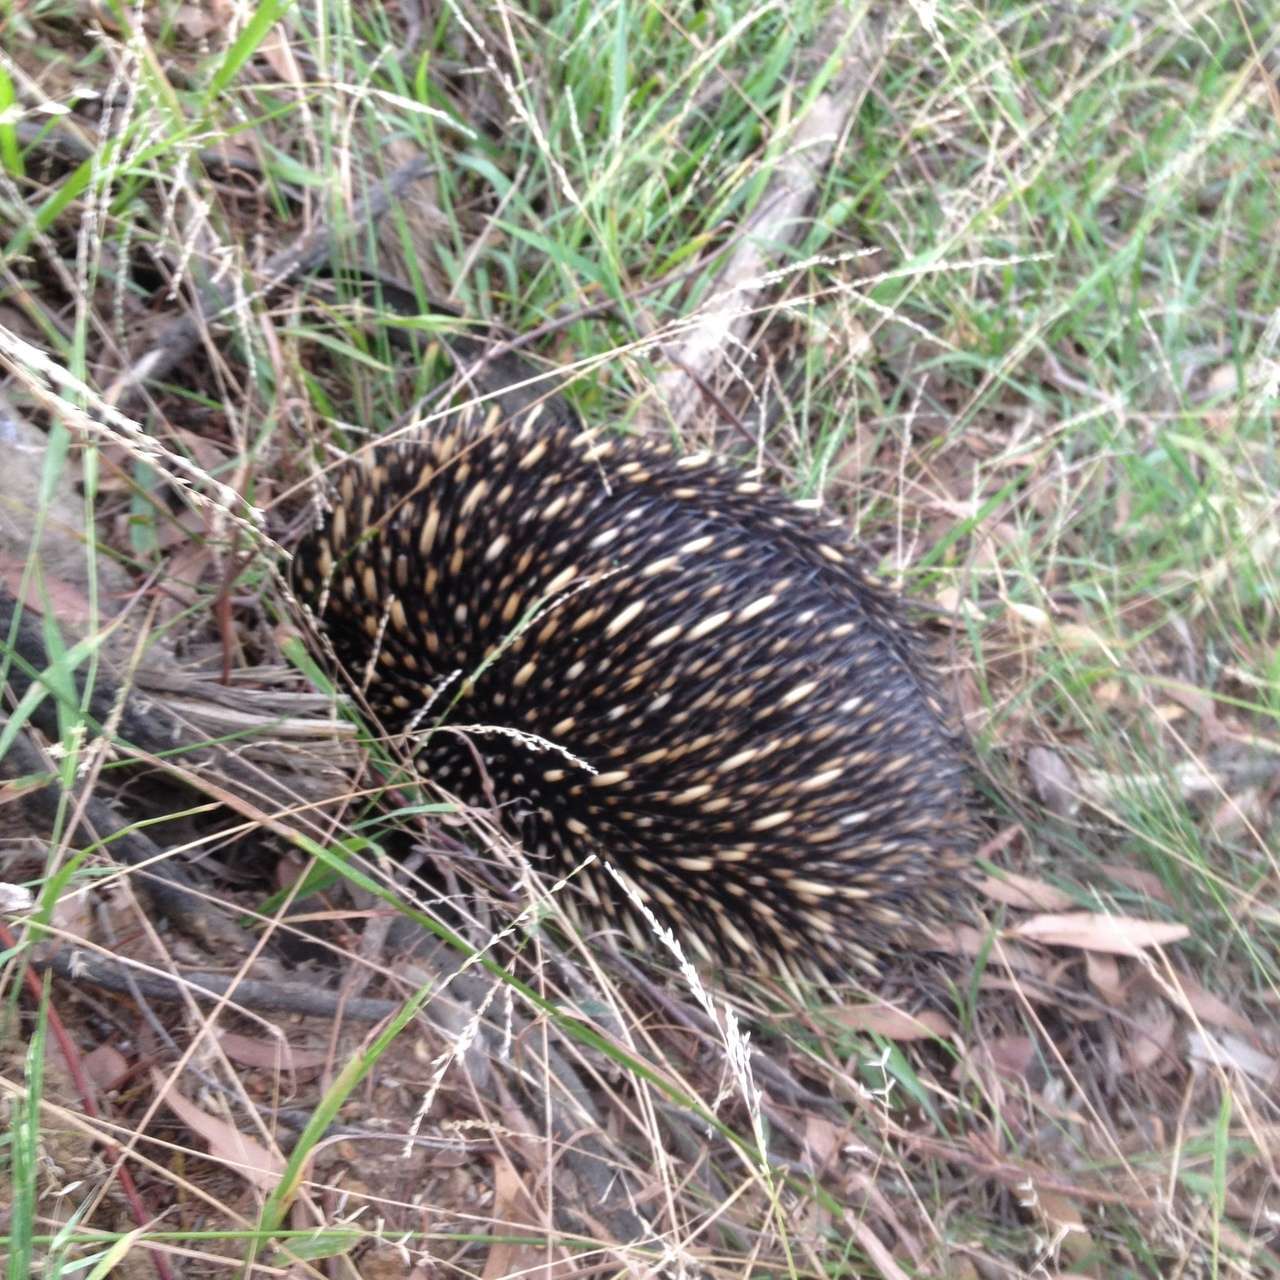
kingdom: Animalia
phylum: Chordata
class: Mammalia
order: Monotremata
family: Tachyglossidae
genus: Tachyglossus
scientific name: Tachyglossus aculeatus
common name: Short-beaked echidna
